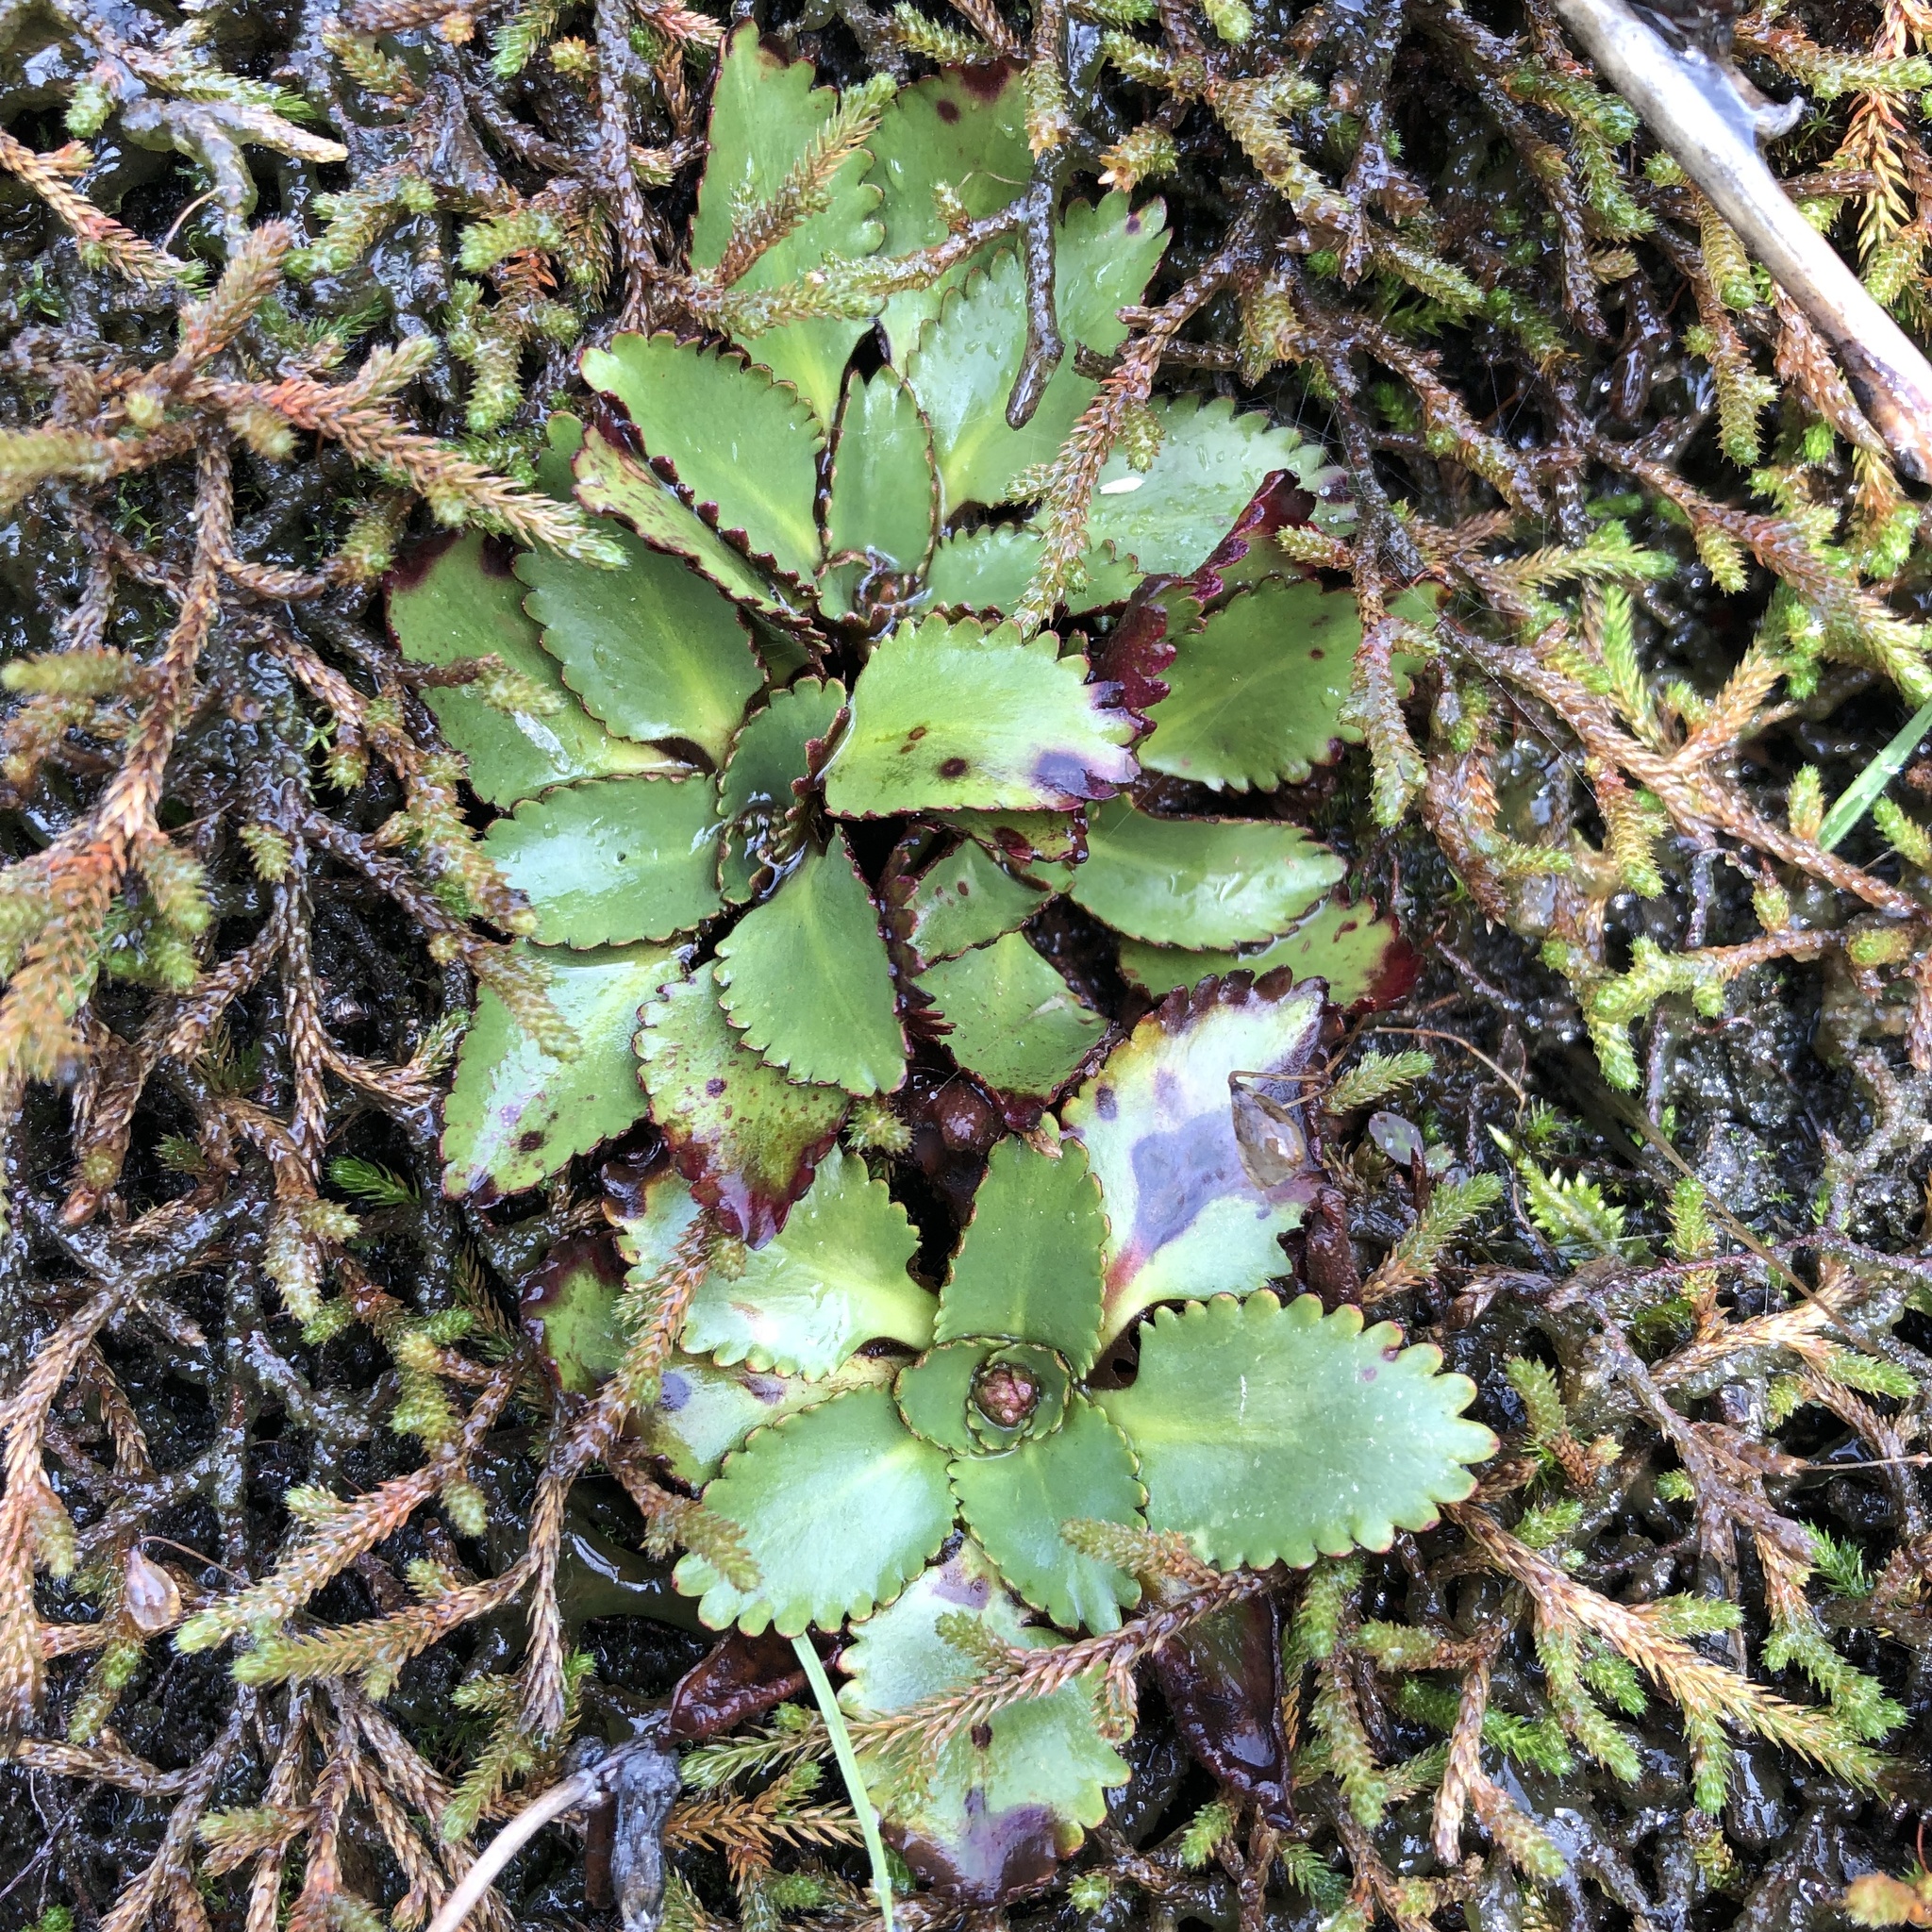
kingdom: Plantae
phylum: Tracheophyta
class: Magnoliopsida
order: Saxifragales
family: Saxifragaceae
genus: Micranthes
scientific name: Micranthes rufidula
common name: Rustyhair saxifrage
